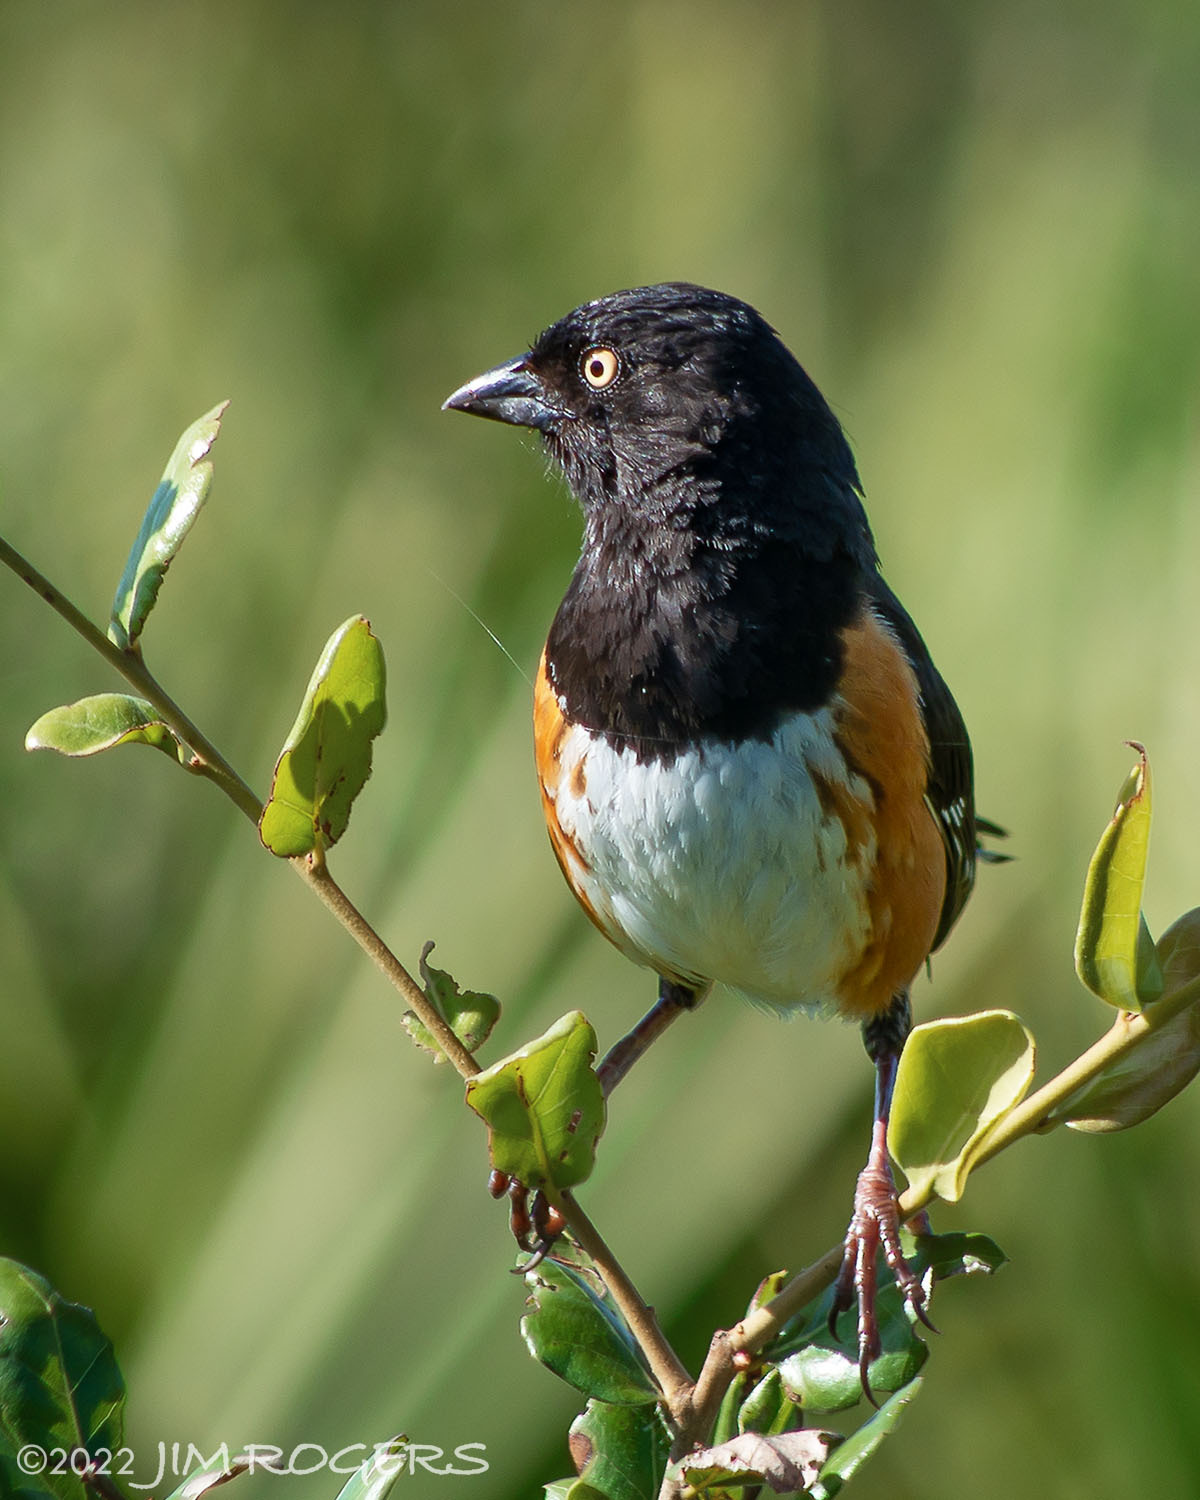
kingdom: Animalia
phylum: Chordata
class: Aves
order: Passeriformes
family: Passerellidae
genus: Pipilo
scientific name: Pipilo erythrophthalmus
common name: Eastern towhee
